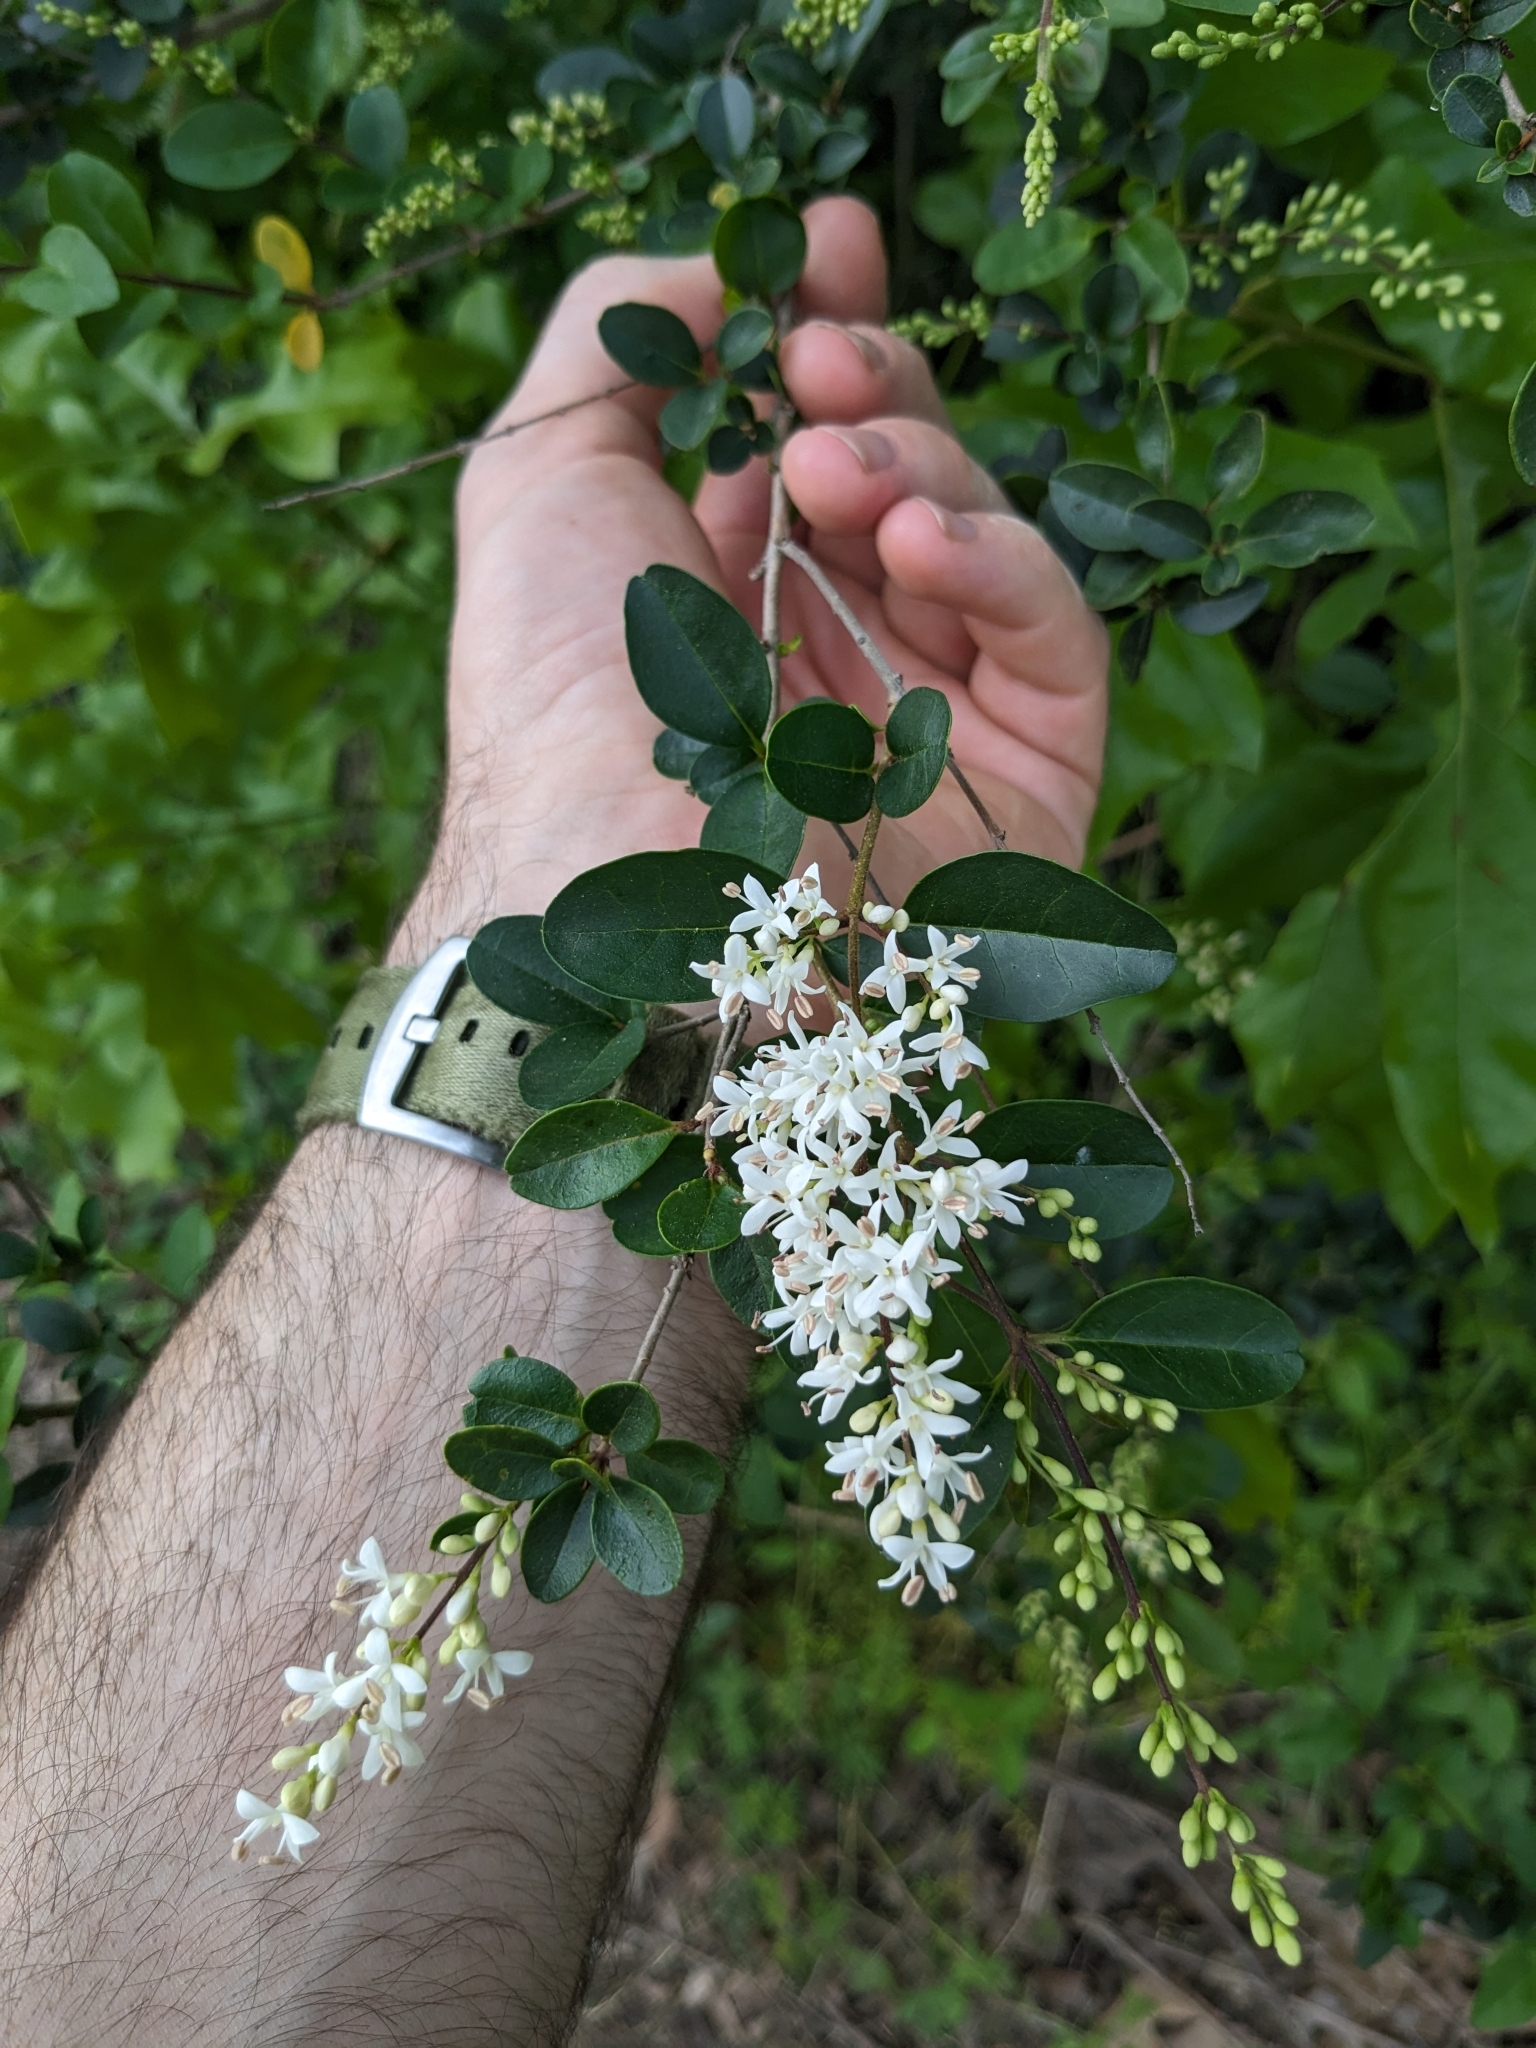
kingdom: Plantae
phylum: Tracheophyta
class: Magnoliopsida
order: Lamiales
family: Oleaceae
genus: Ligustrum
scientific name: Ligustrum sinense
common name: Chinese privet
